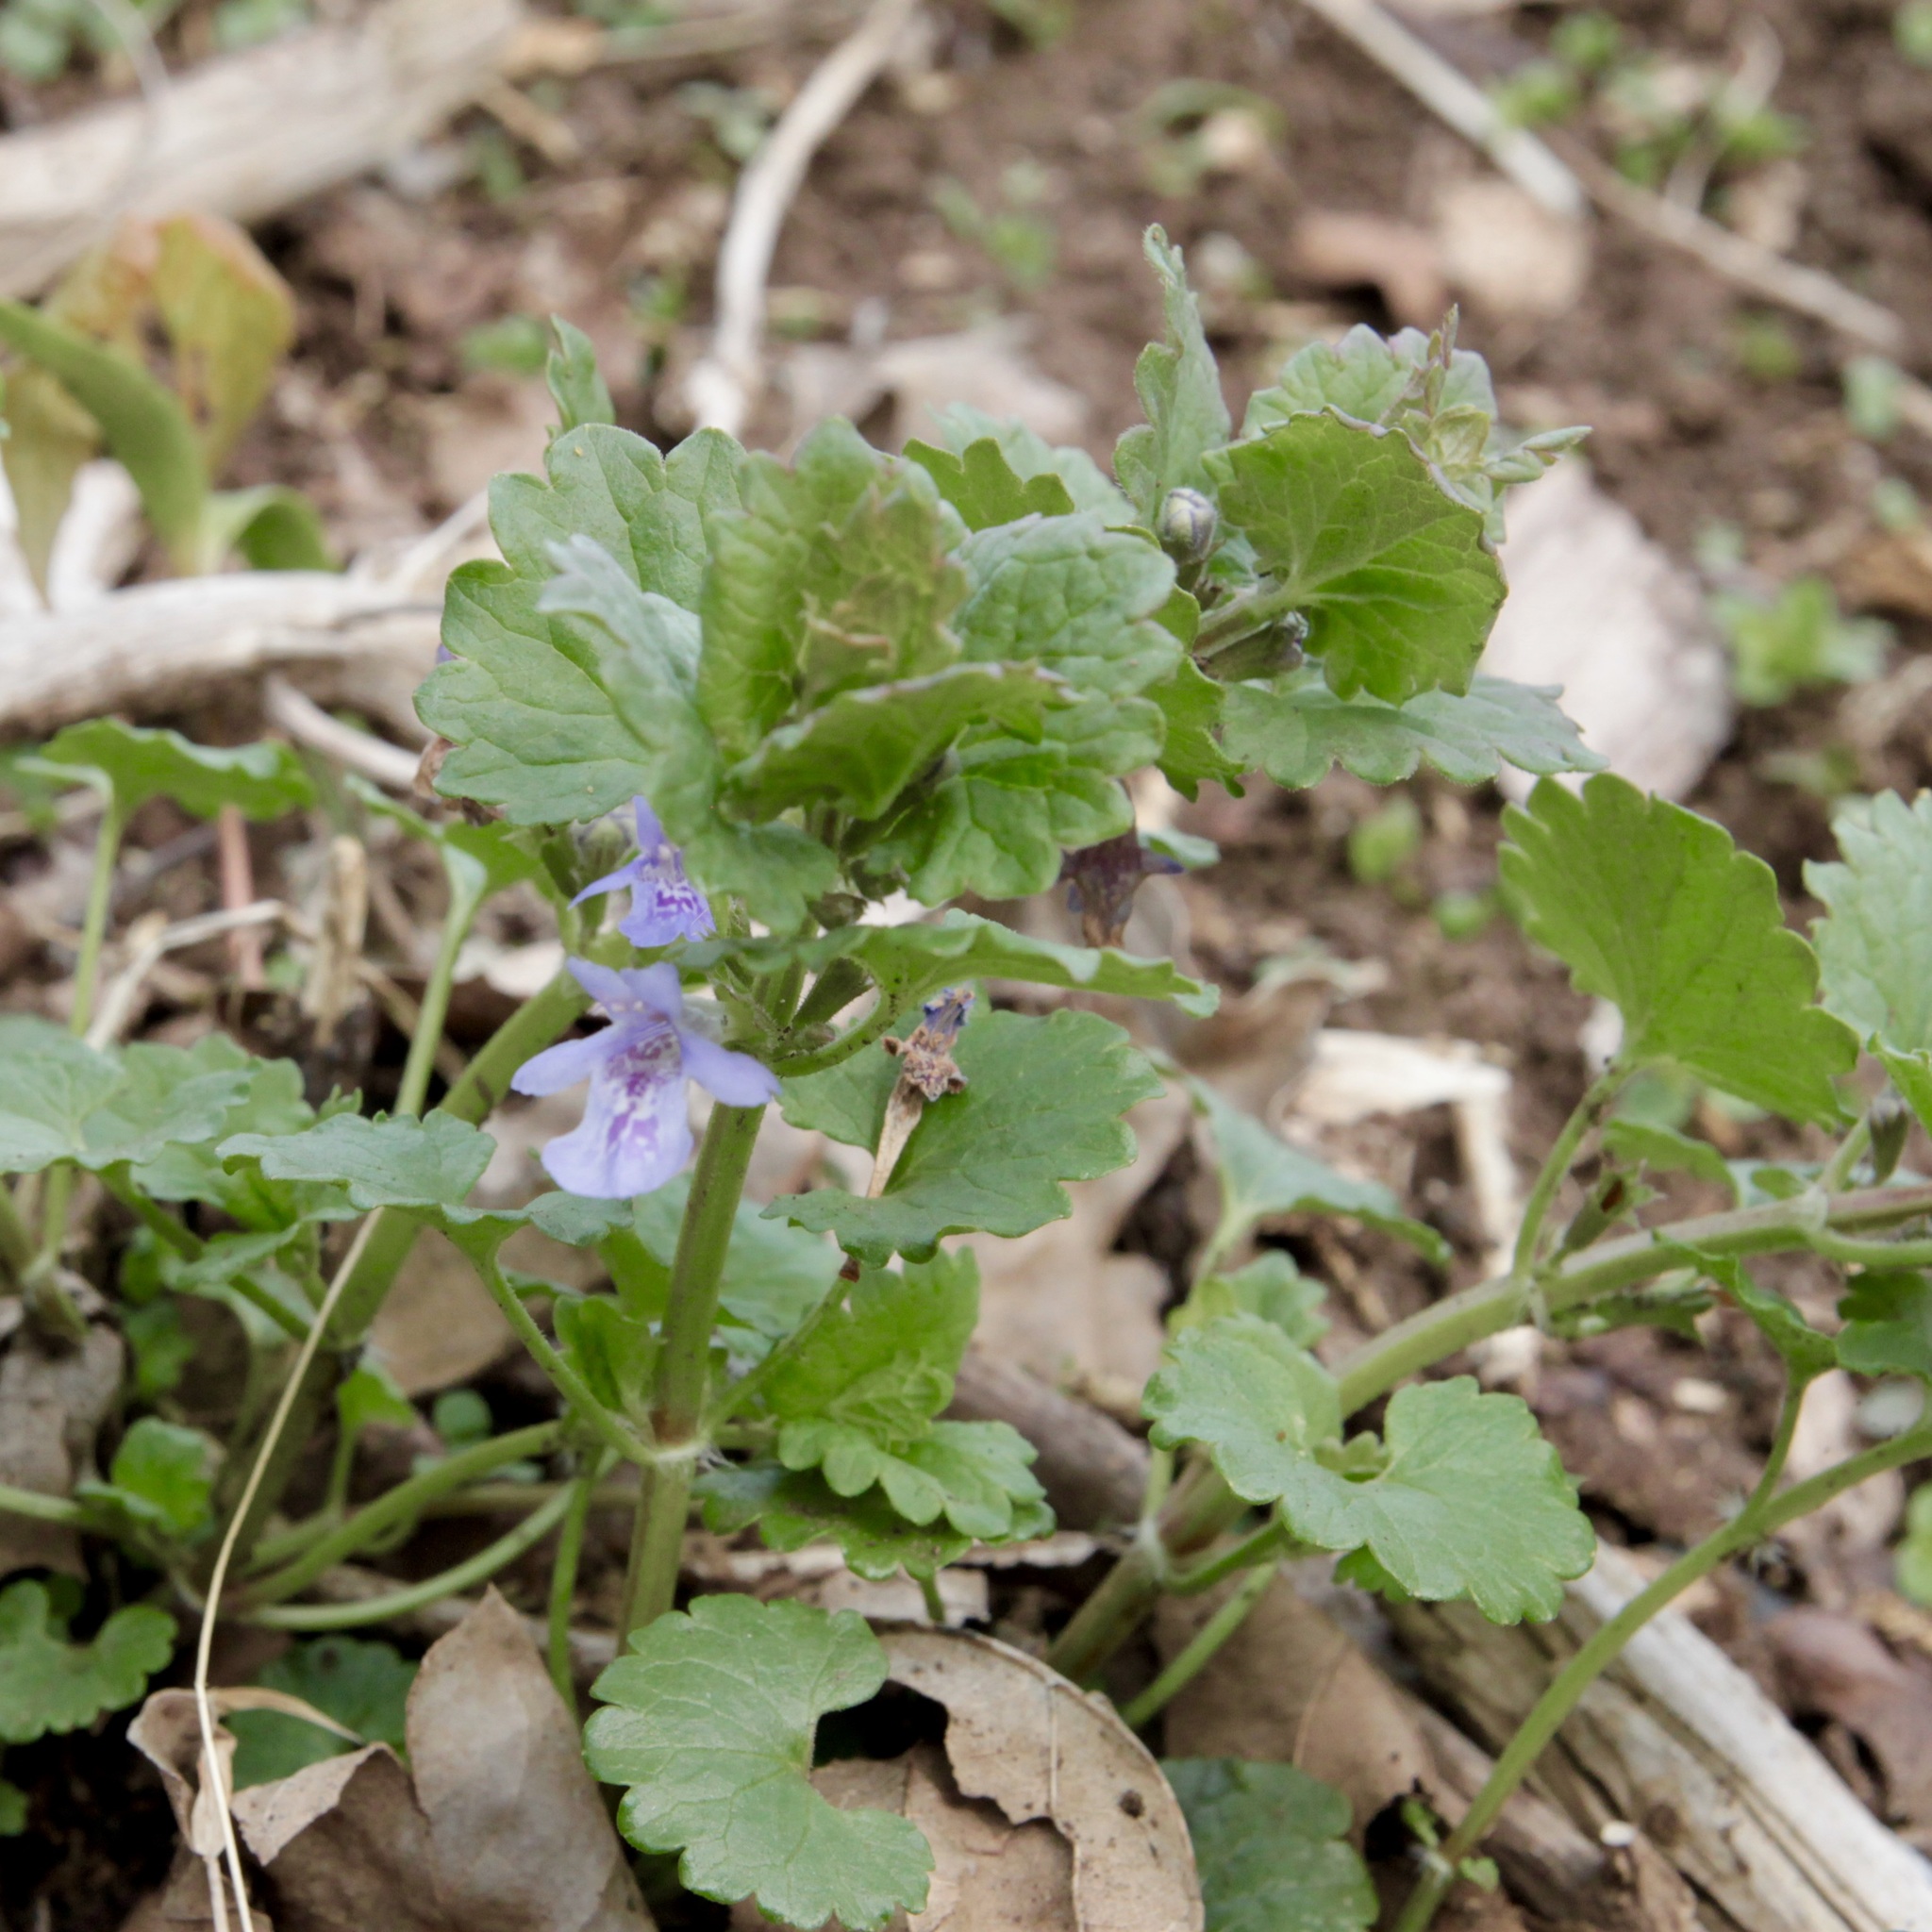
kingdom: Plantae
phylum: Tracheophyta
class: Magnoliopsida
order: Lamiales
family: Lamiaceae
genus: Glechoma
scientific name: Glechoma hederacea
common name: Ground ivy
